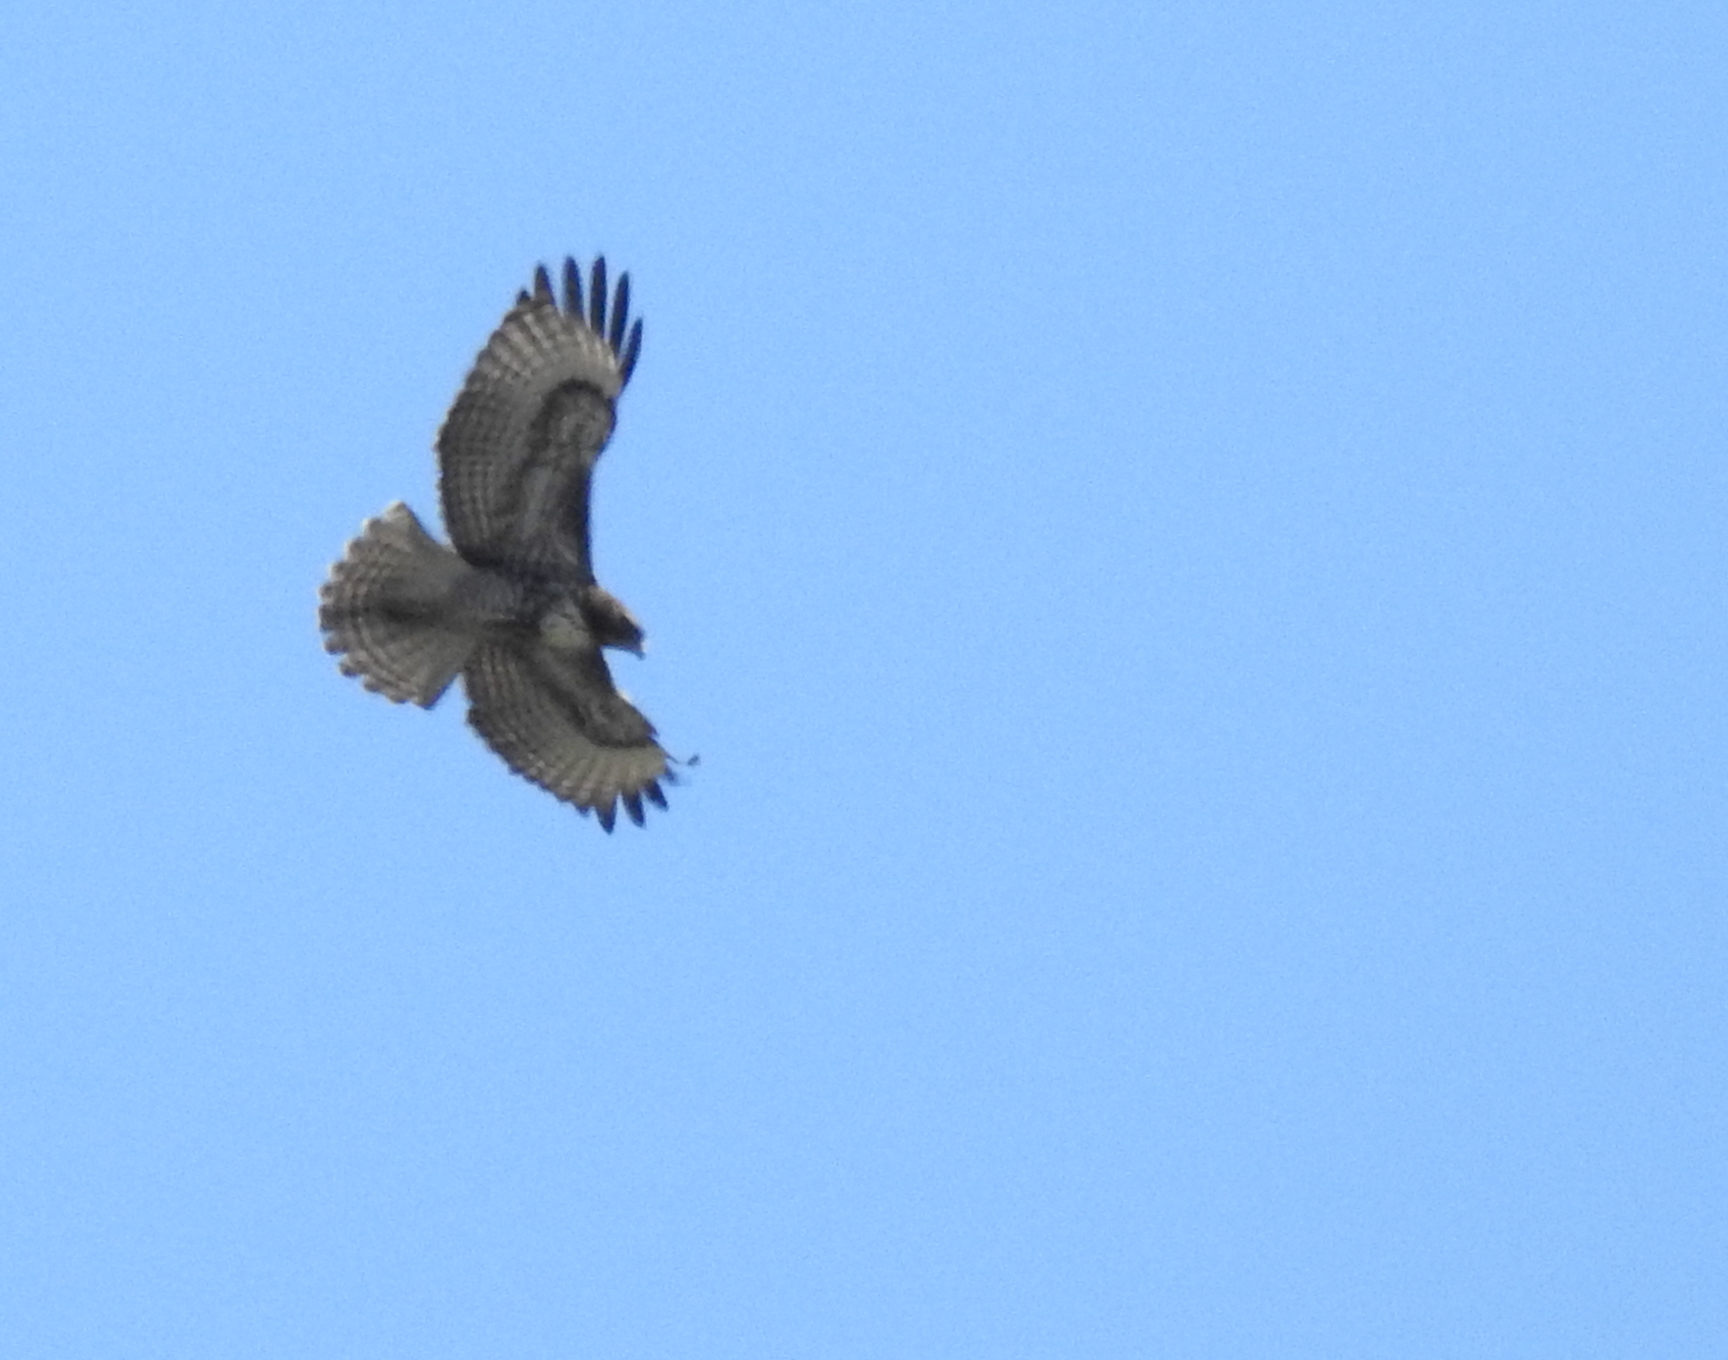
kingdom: Animalia
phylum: Chordata
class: Aves
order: Accipitriformes
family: Accipitridae
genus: Buteo
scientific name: Buteo jamaicensis
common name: Red-tailed hawk
